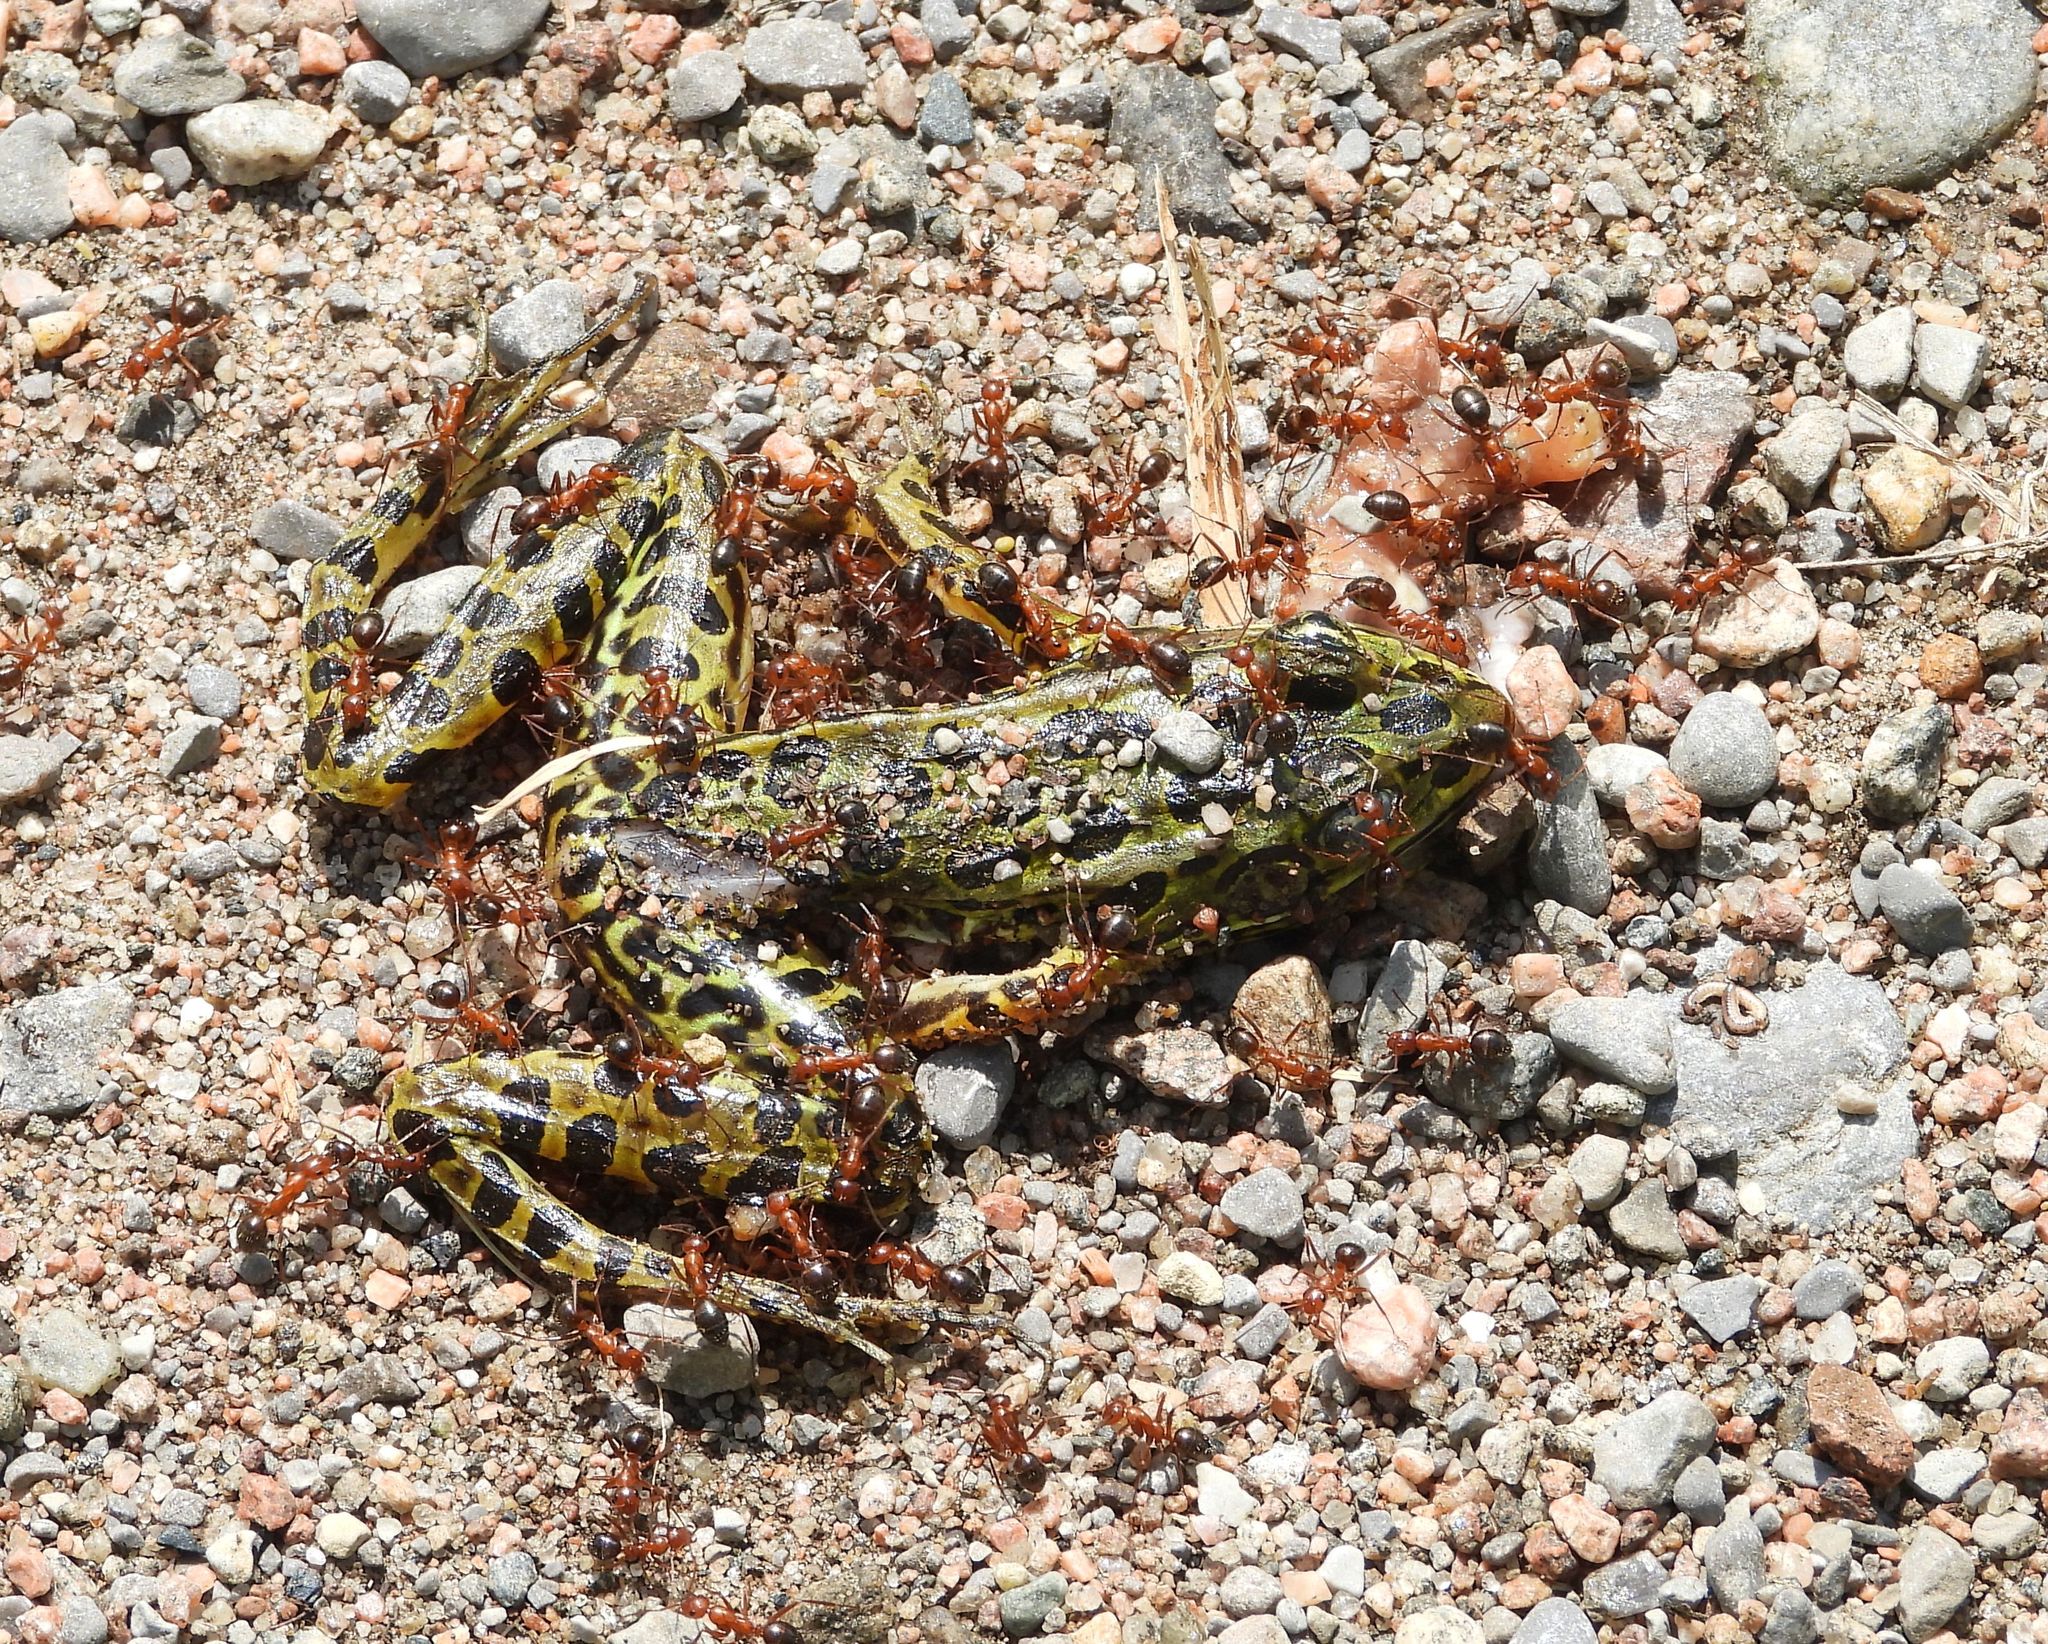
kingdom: Animalia
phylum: Chordata
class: Amphibia
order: Anura
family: Ranidae
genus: Lithobates
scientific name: Lithobates pipiens
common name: Northern leopard frog
